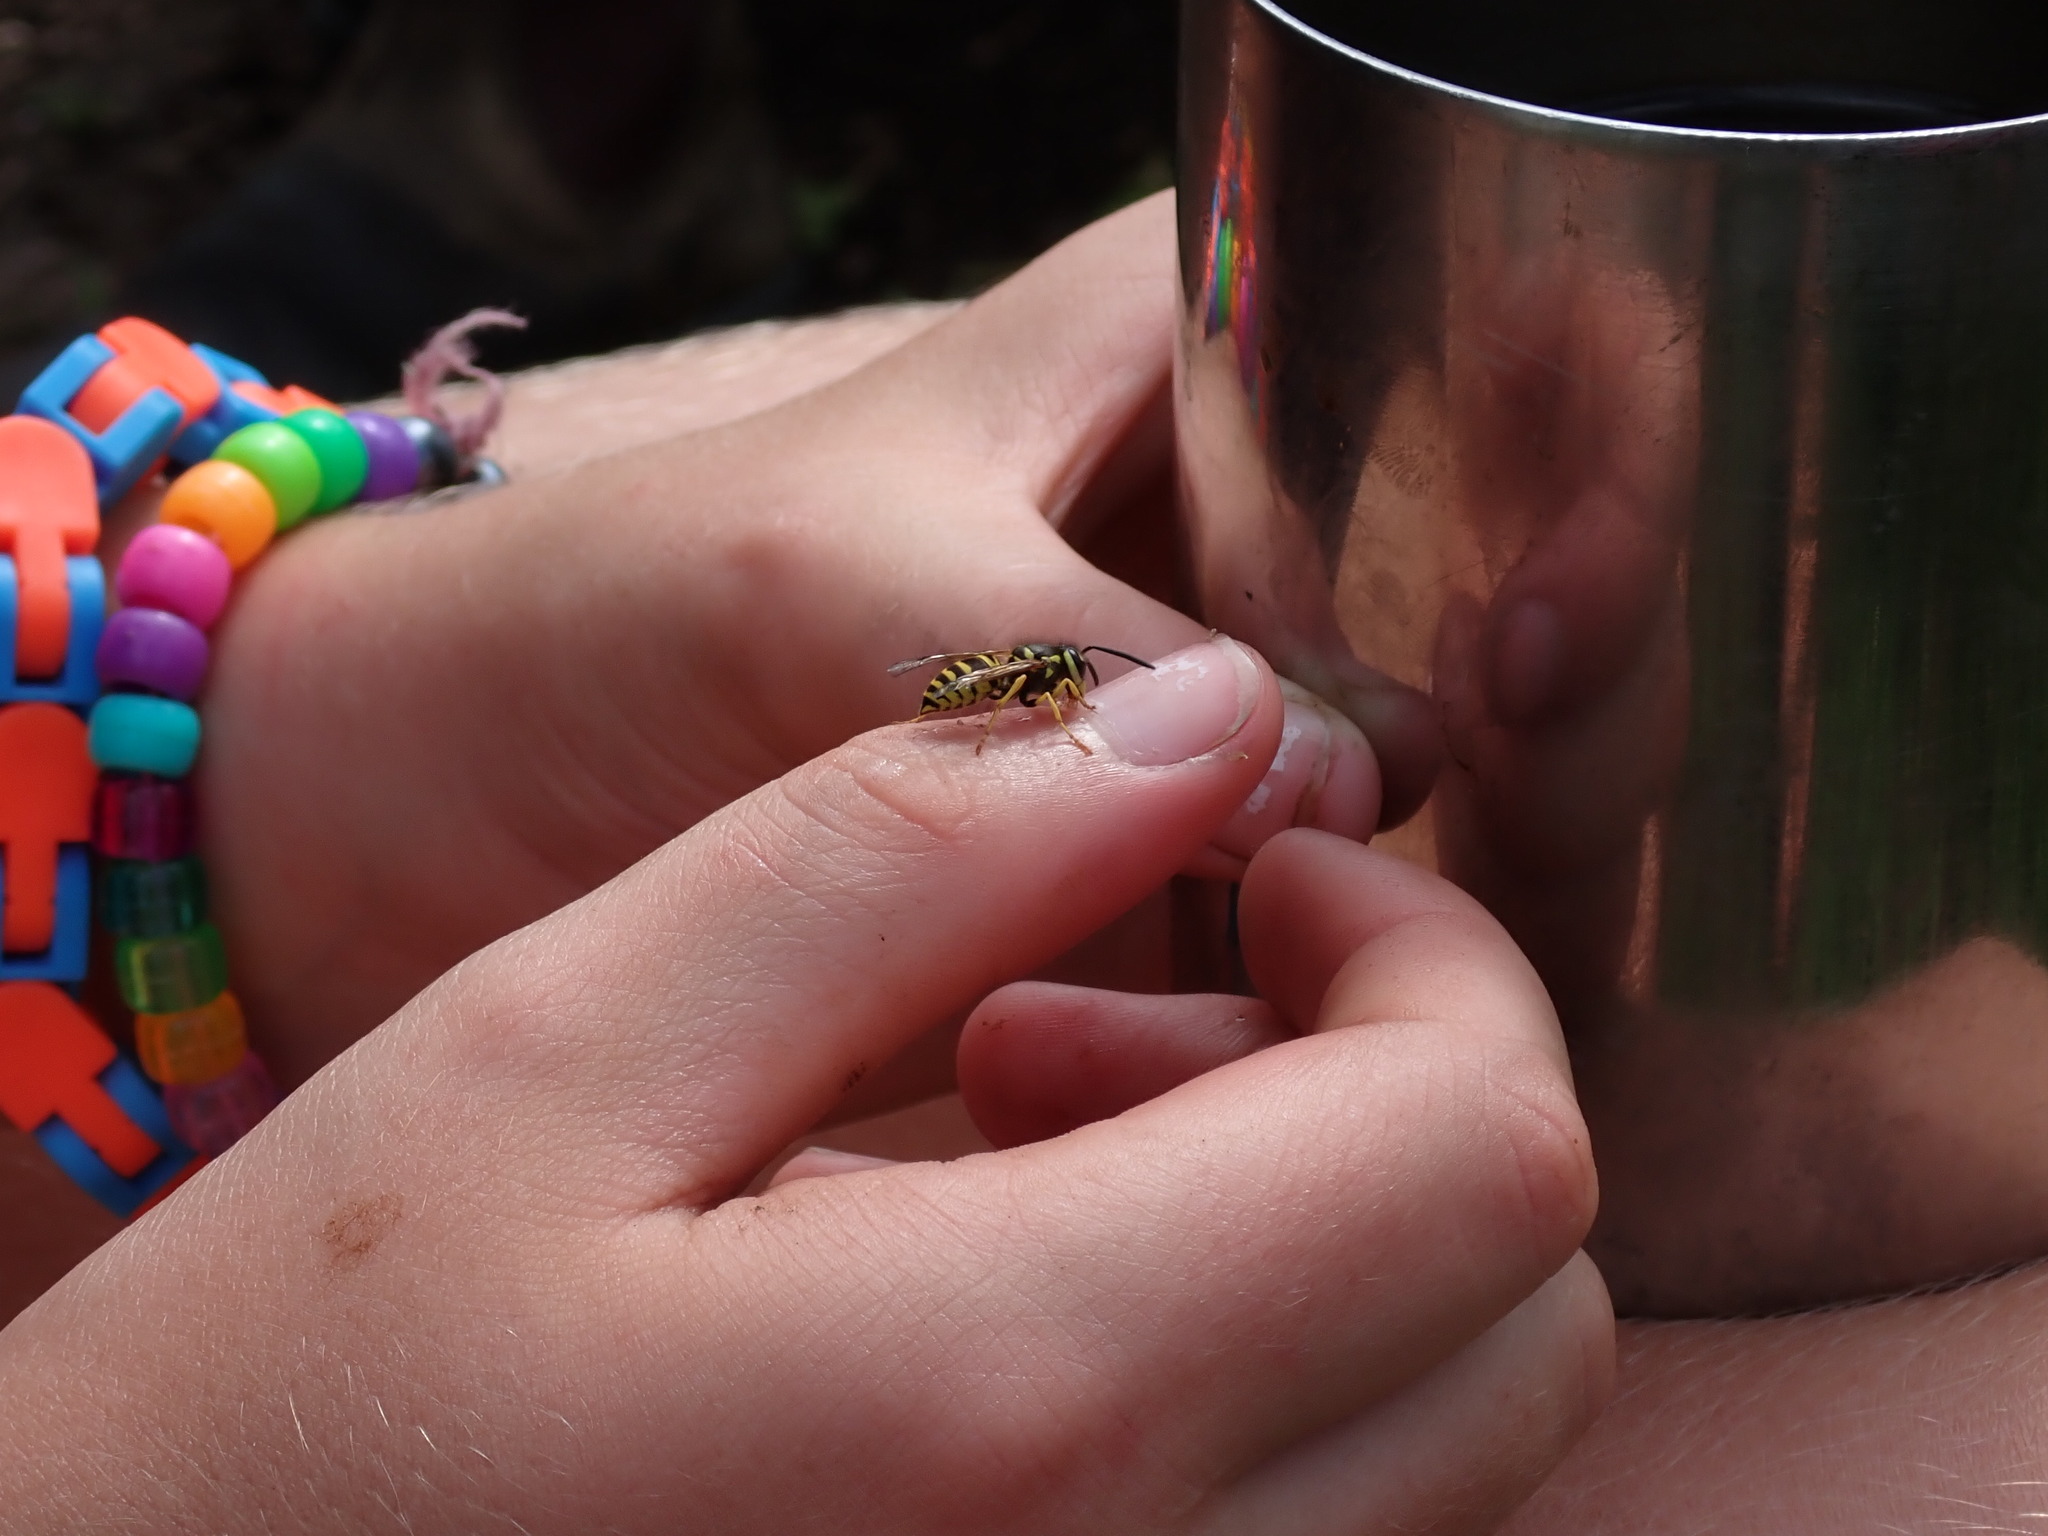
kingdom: Animalia
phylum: Arthropoda
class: Insecta
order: Hymenoptera
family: Vespidae
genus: Vespula
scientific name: Vespula maculifrons
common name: Eastern yellowjacket
